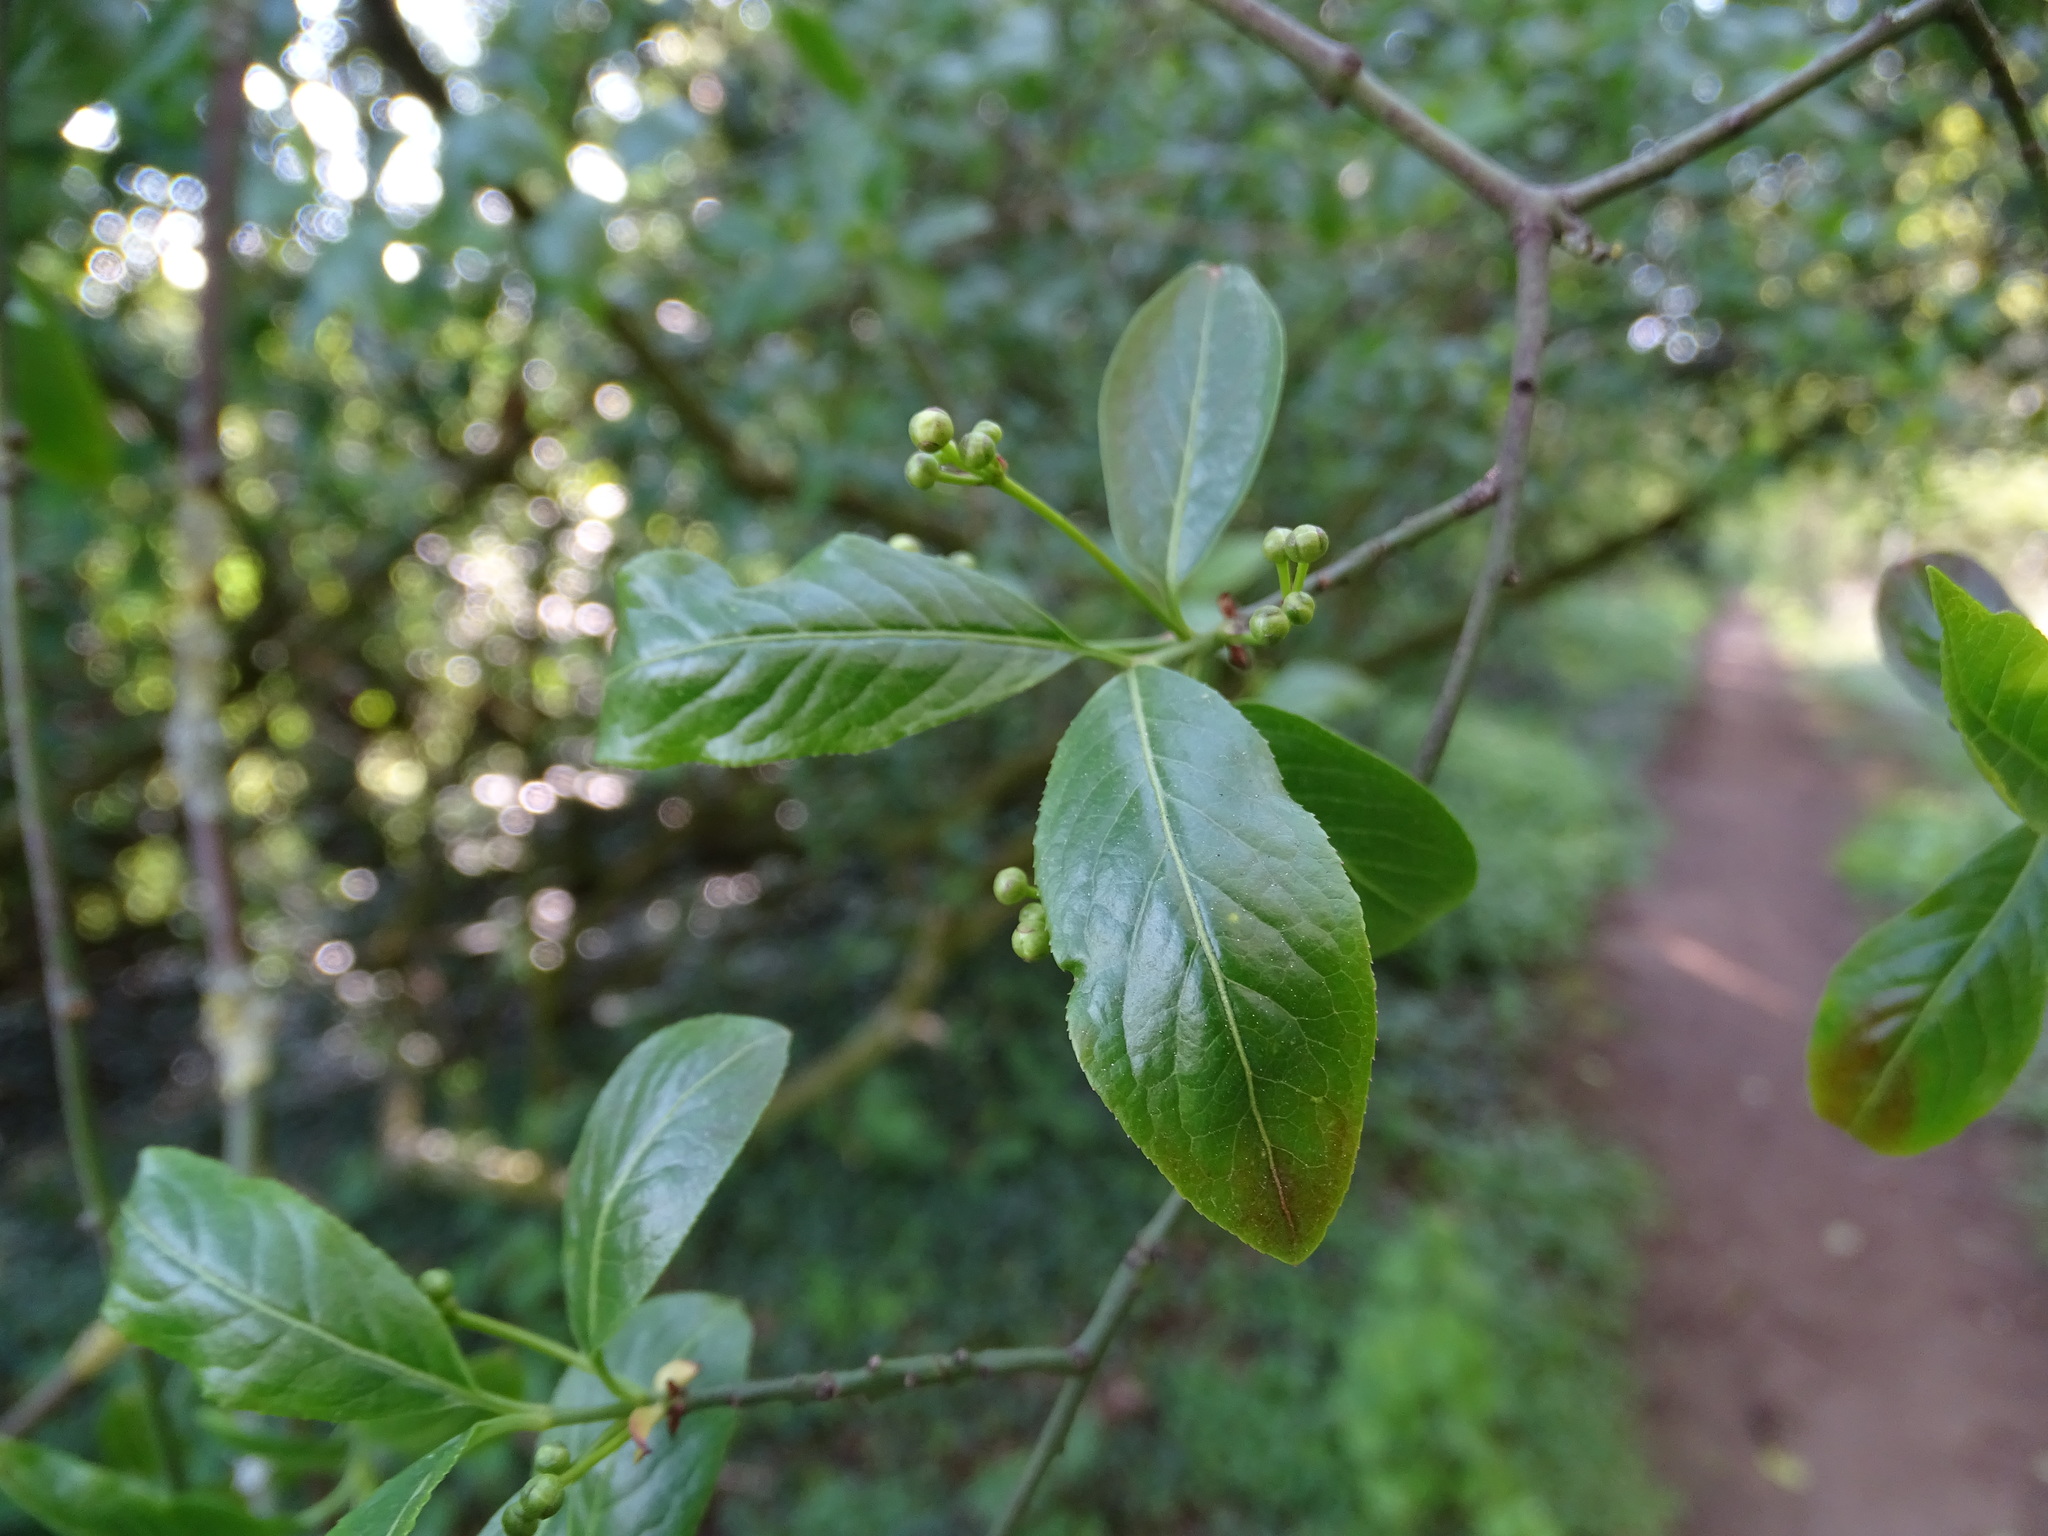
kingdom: Plantae
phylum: Tracheophyta
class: Magnoliopsida
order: Celastrales
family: Celastraceae
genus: Euonymus
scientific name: Euonymus europaeus
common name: Spindle
